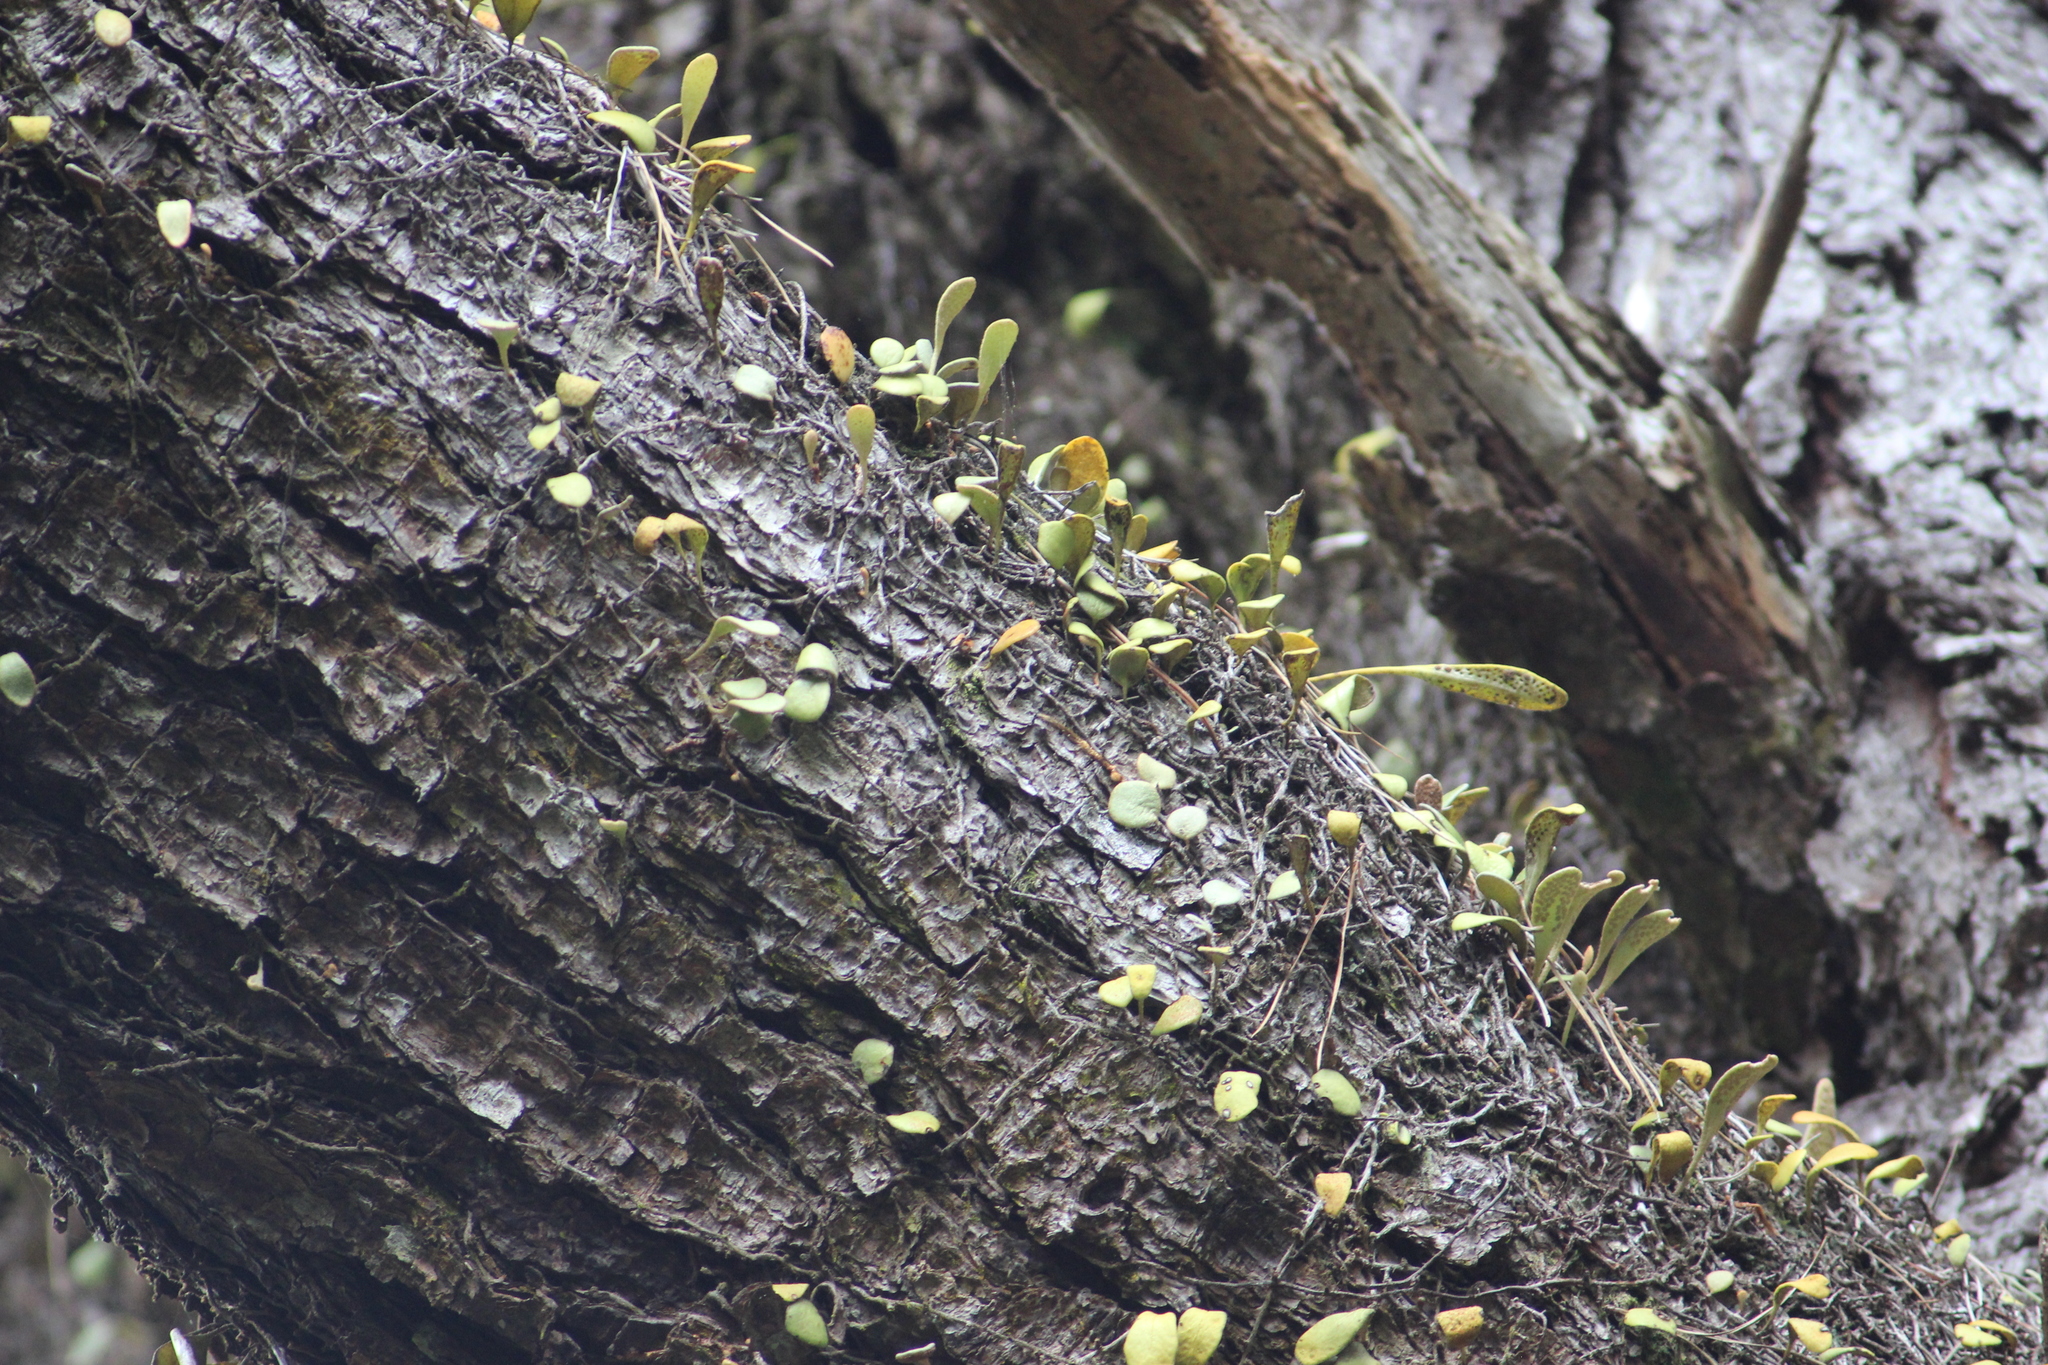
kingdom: Plantae
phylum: Tracheophyta
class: Polypodiopsida
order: Polypodiales
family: Polypodiaceae
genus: Pyrrosia
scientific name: Pyrrosia eleagnifolia
